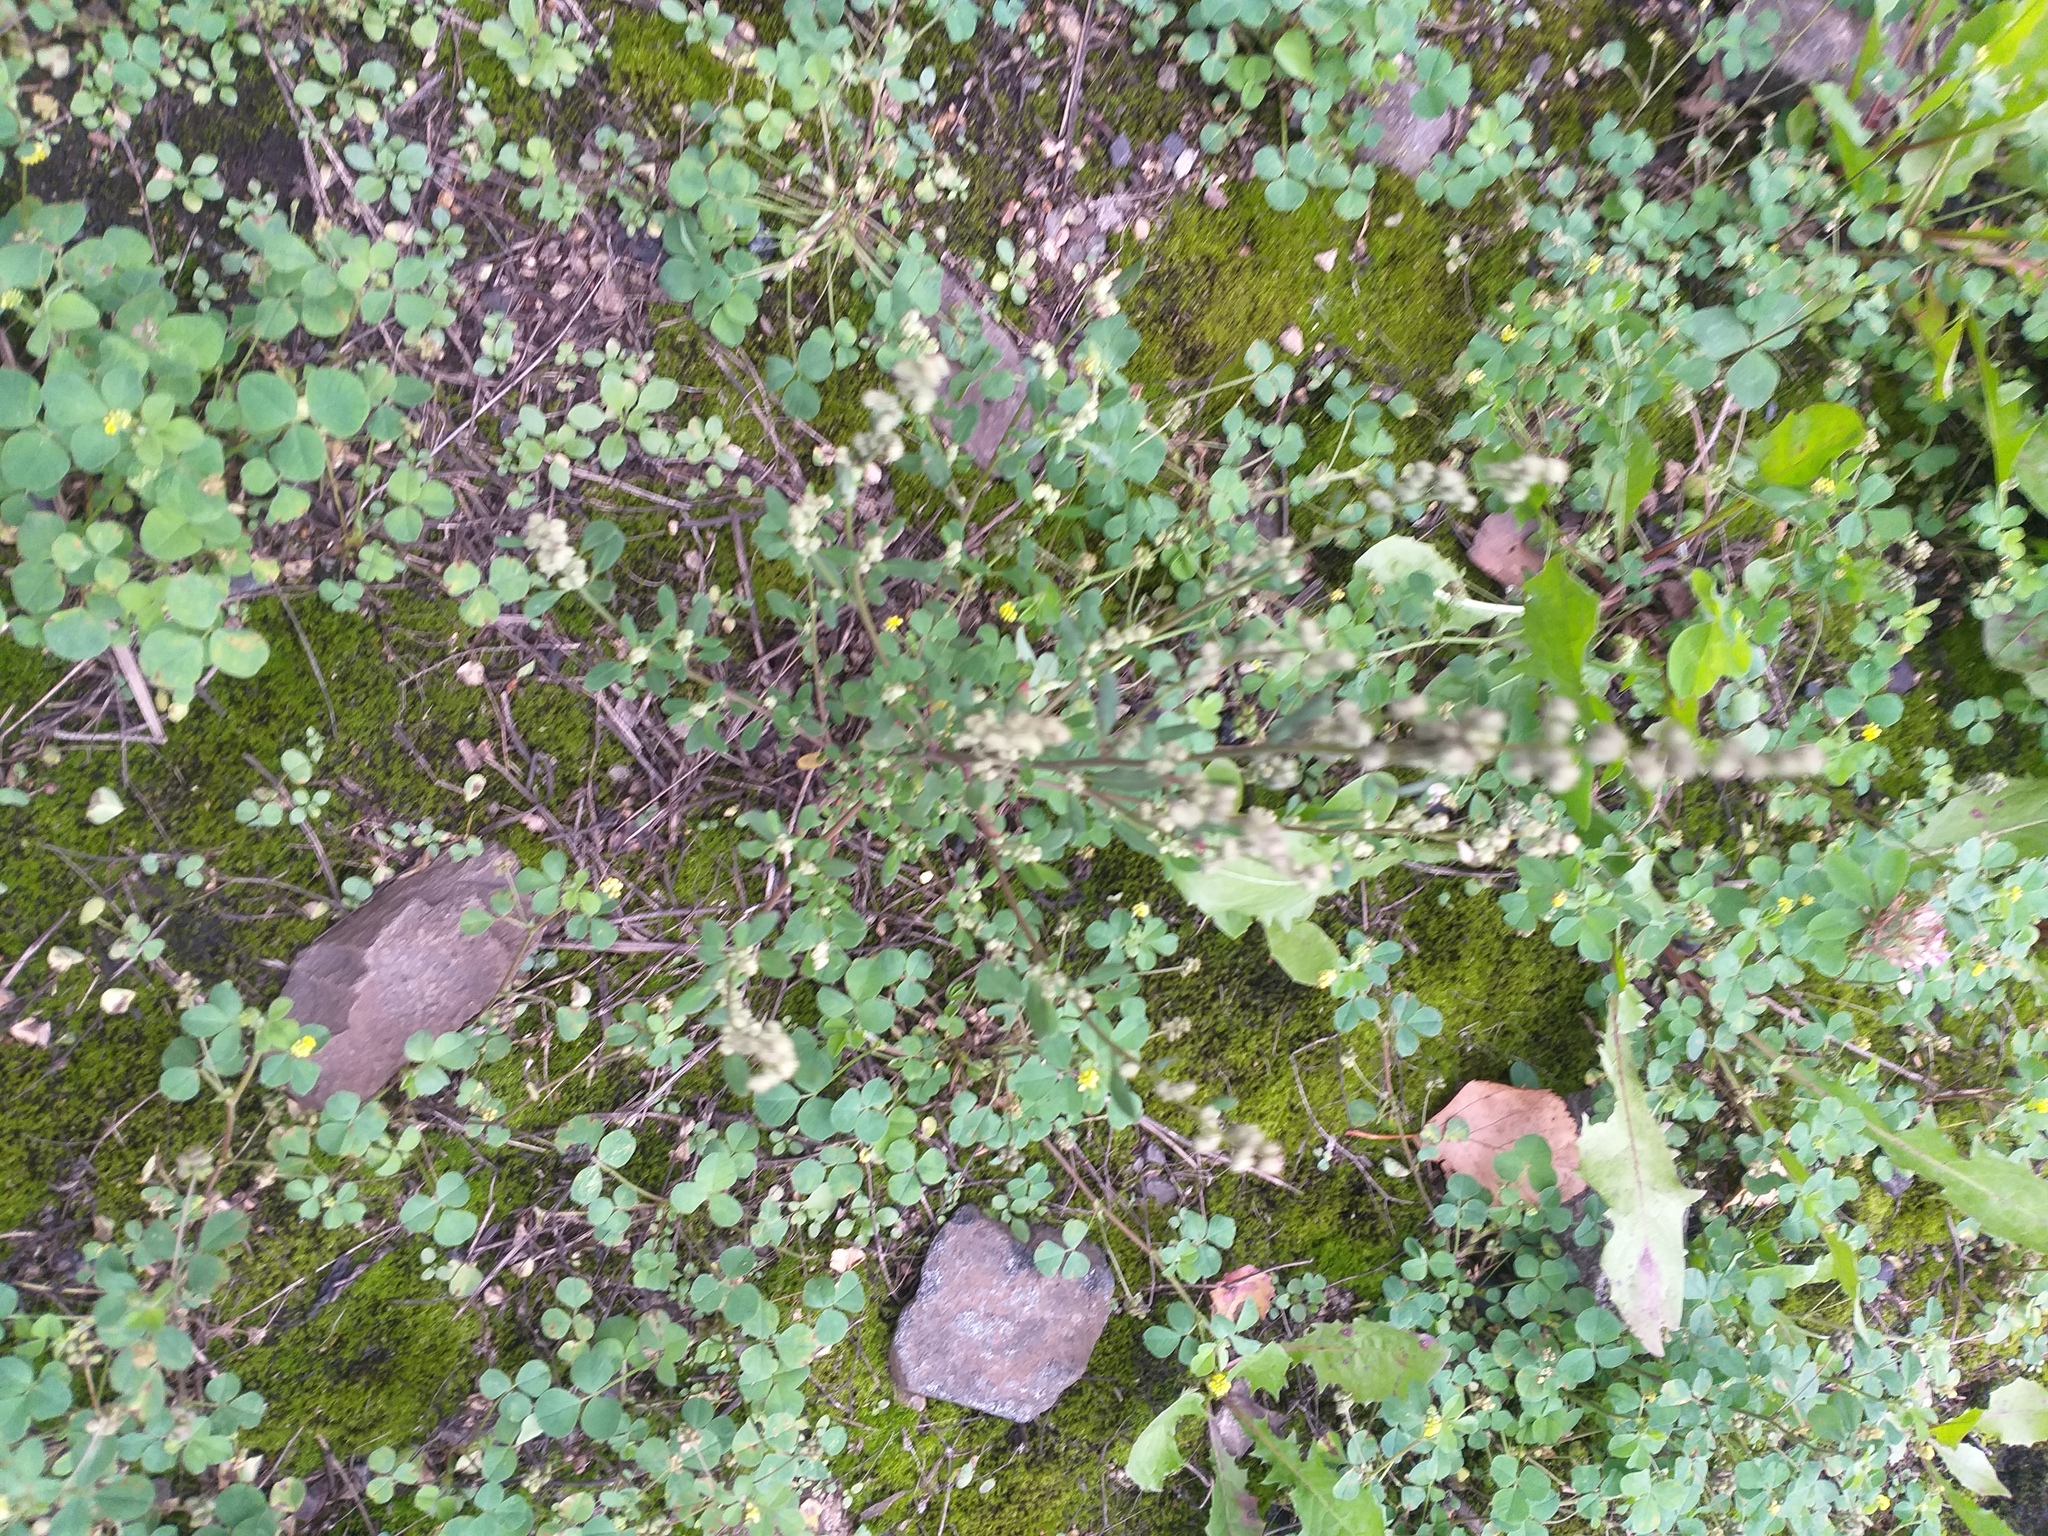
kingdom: Plantae
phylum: Tracheophyta
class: Magnoliopsida
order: Caryophyllales
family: Amaranthaceae
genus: Chenopodium
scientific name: Chenopodium betaceum
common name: Striped goosefoot
